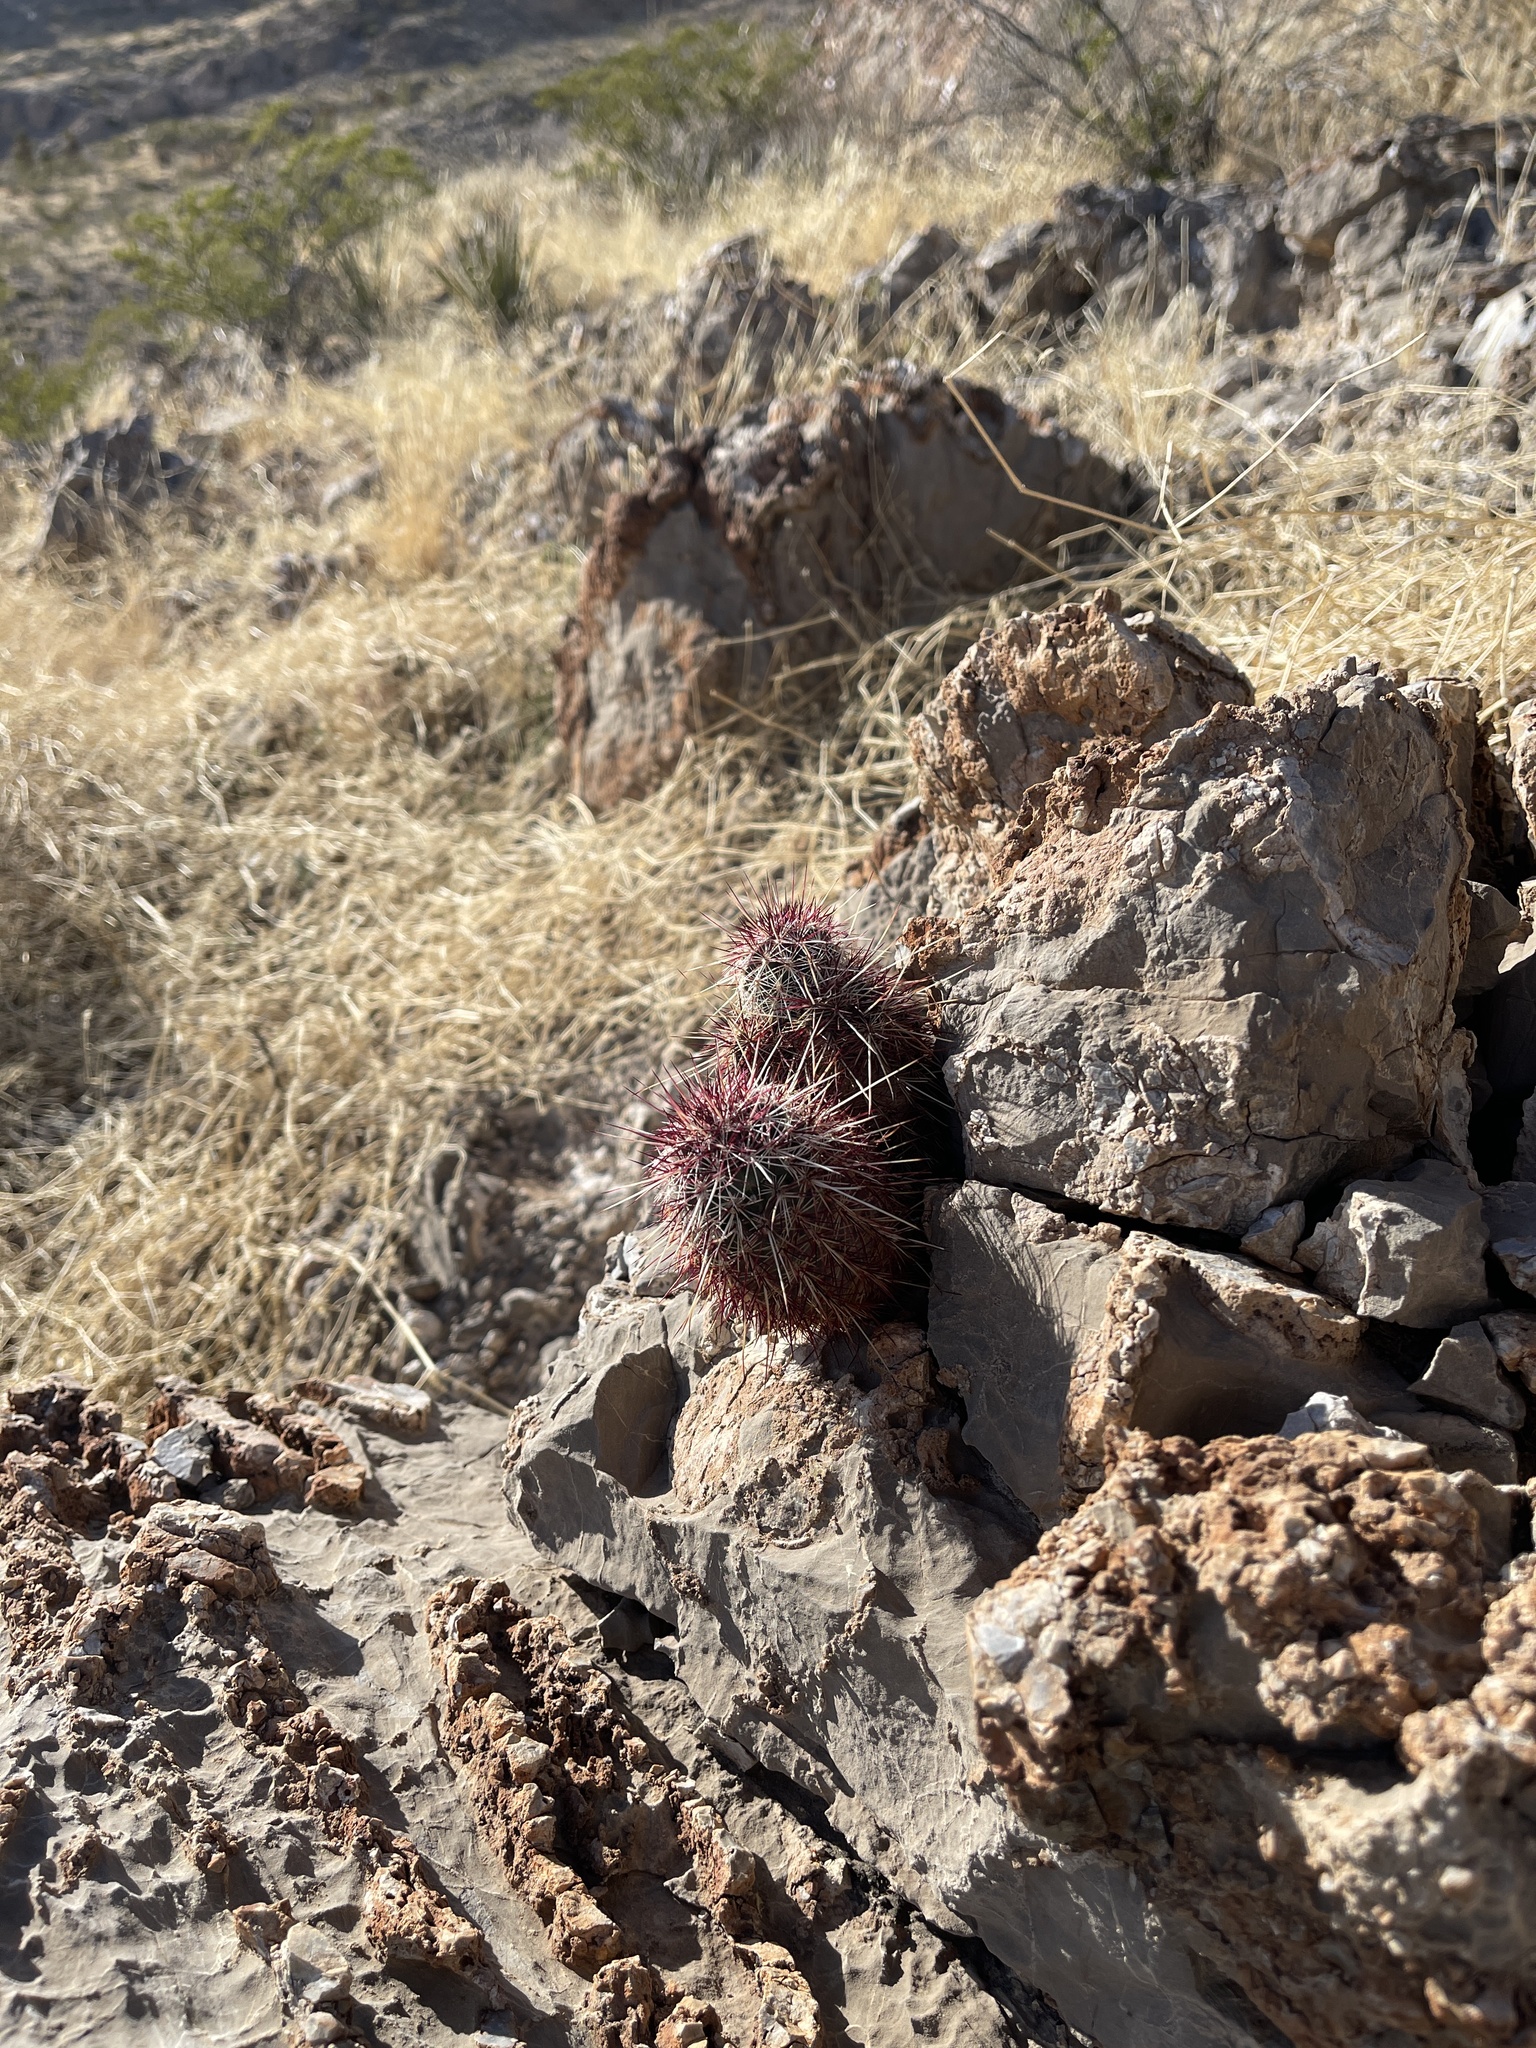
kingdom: Plantae
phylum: Tracheophyta
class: Magnoliopsida
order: Caryophyllales
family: Cactaceae
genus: Echinocereus
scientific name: Echinocereus viridiflorus
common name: Nylon hedgehog cactus
